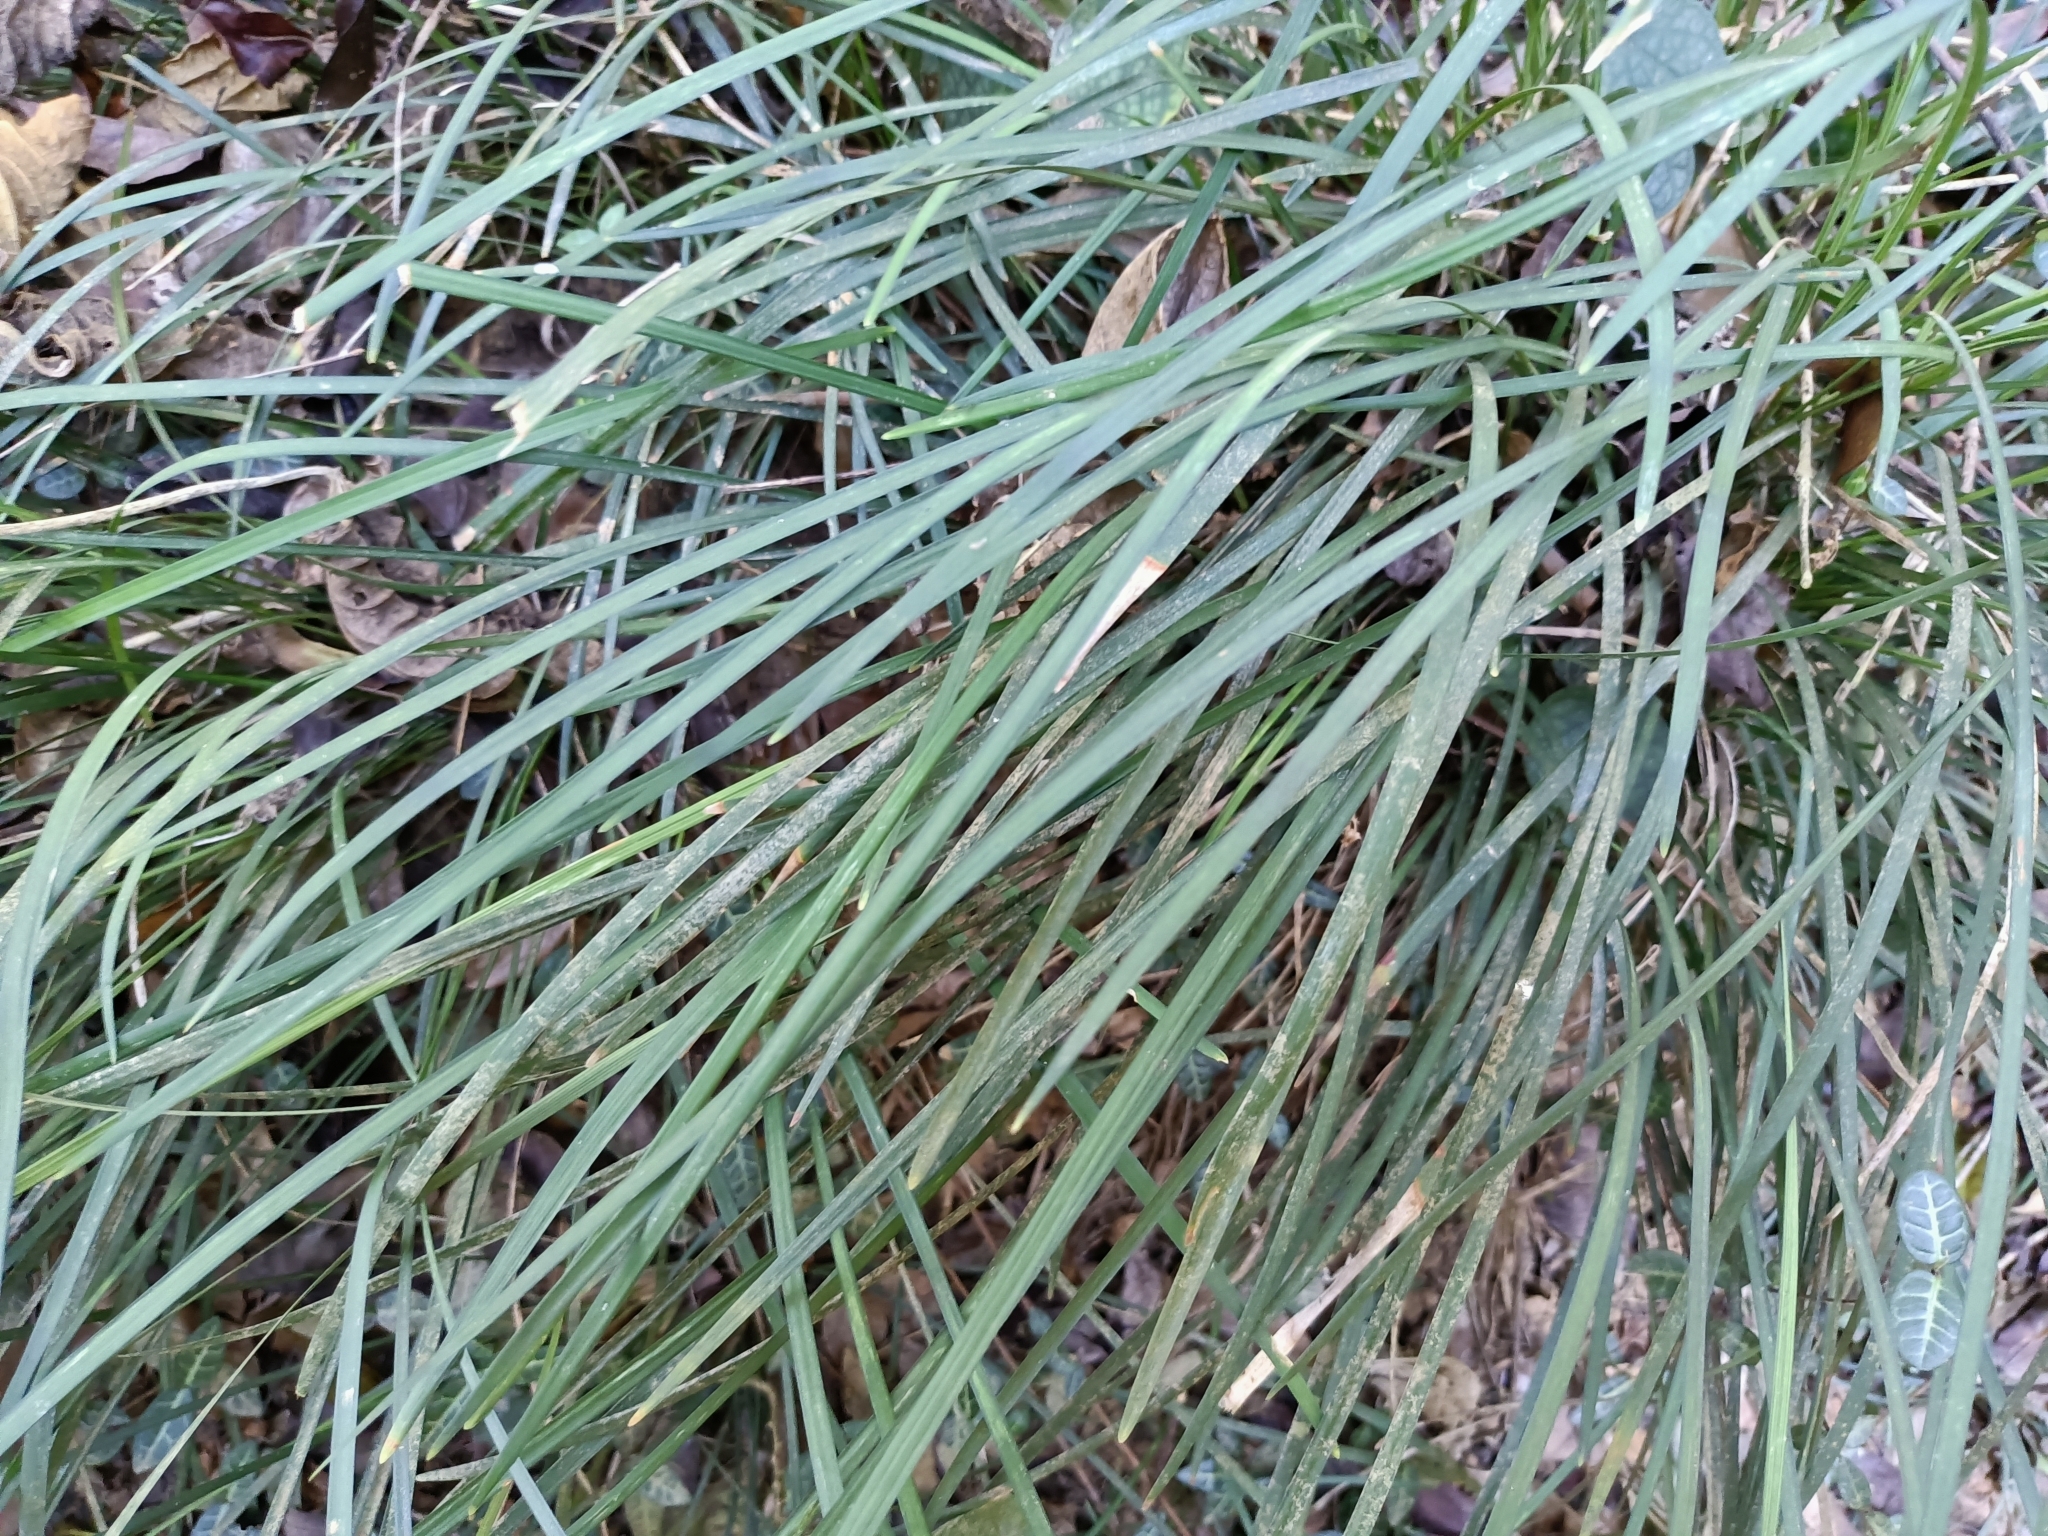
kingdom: Plantae
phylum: Tracheophyta
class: Liliopsida
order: Asparagales
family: Asparagaceae
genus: Ophiopogon
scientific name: Ophiopogon reversus
